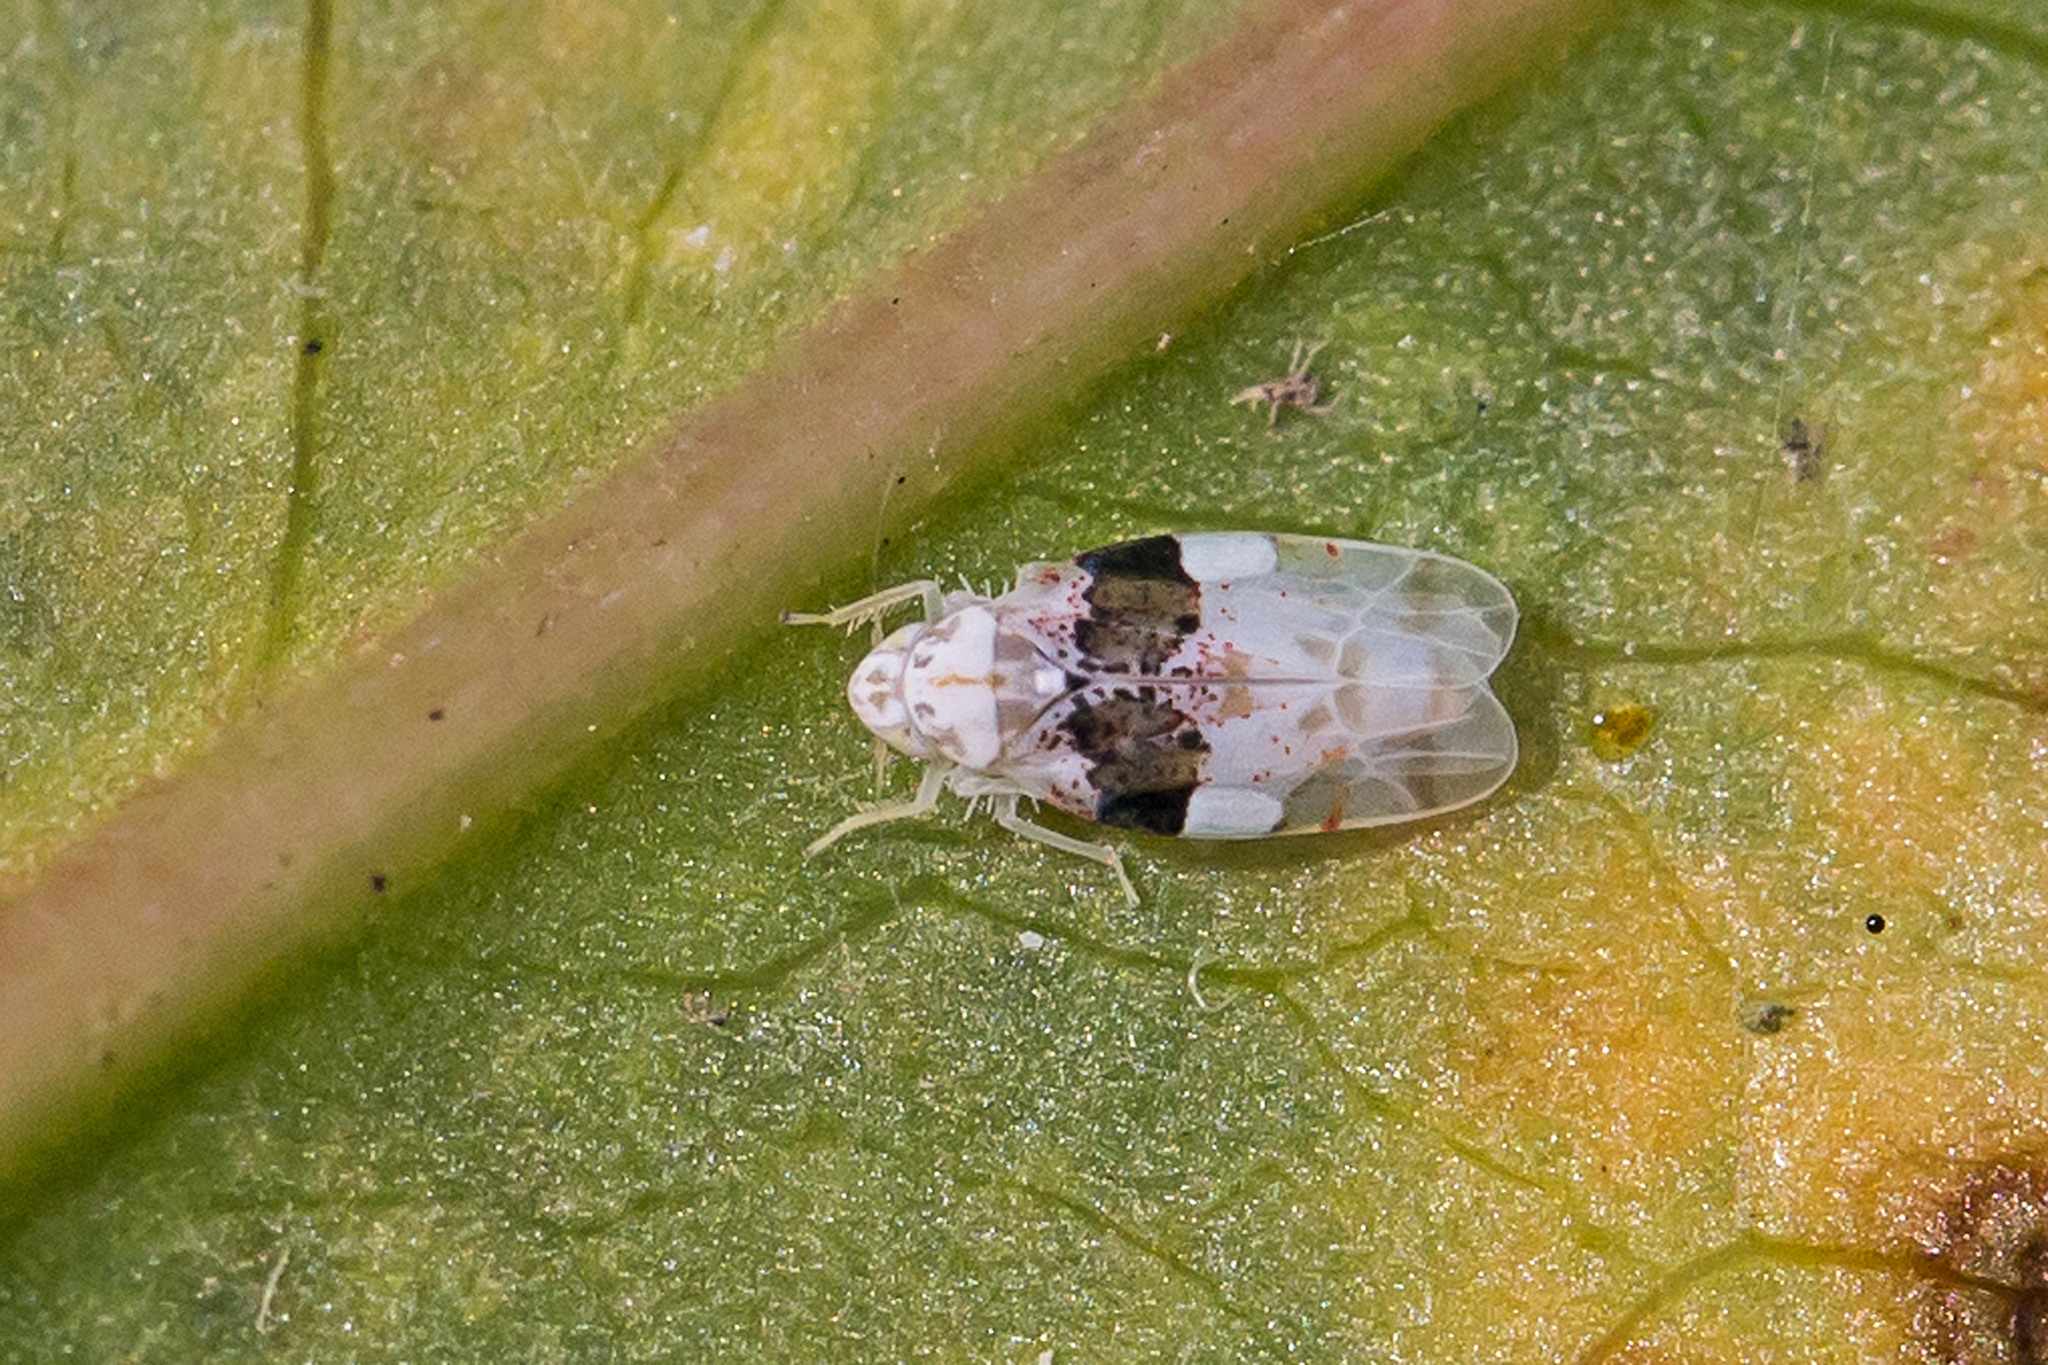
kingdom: Animalia
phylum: Arthropoda
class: Insecta
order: Hemiptera
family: Cicadellidae
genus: Hymetta
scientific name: Hymetta anthisma
